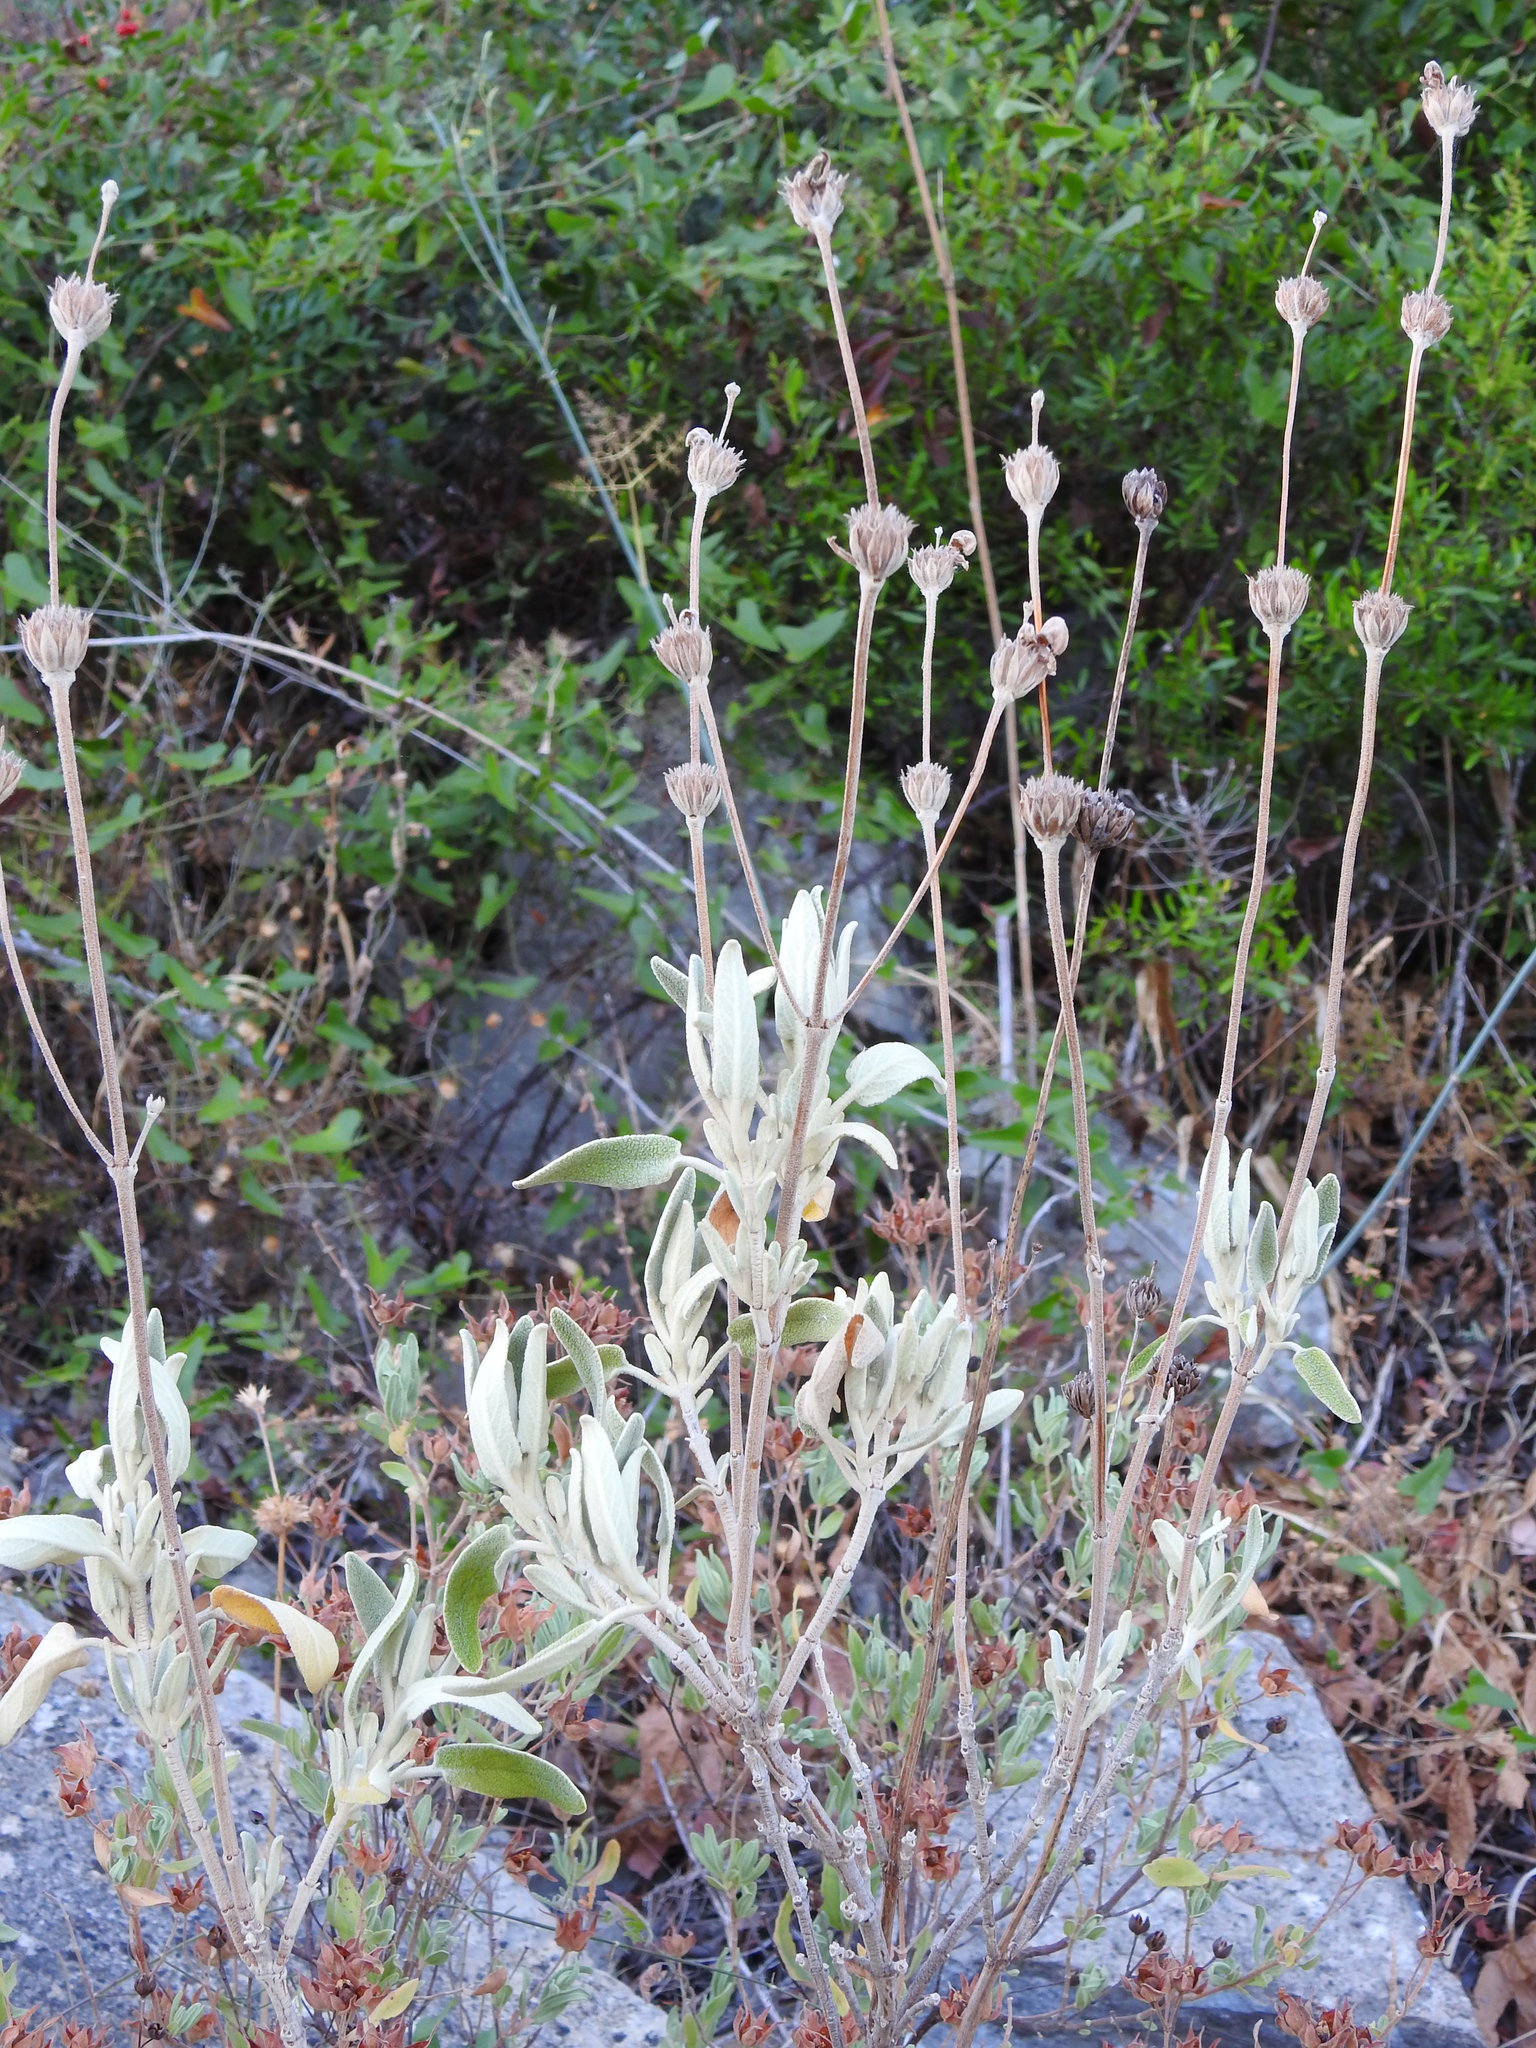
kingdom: Plantae
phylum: Tracheophyta
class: Magnoliopsida
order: Lamiales
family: Lamiaceae
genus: Phlomis
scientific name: Phlomis purpurea
